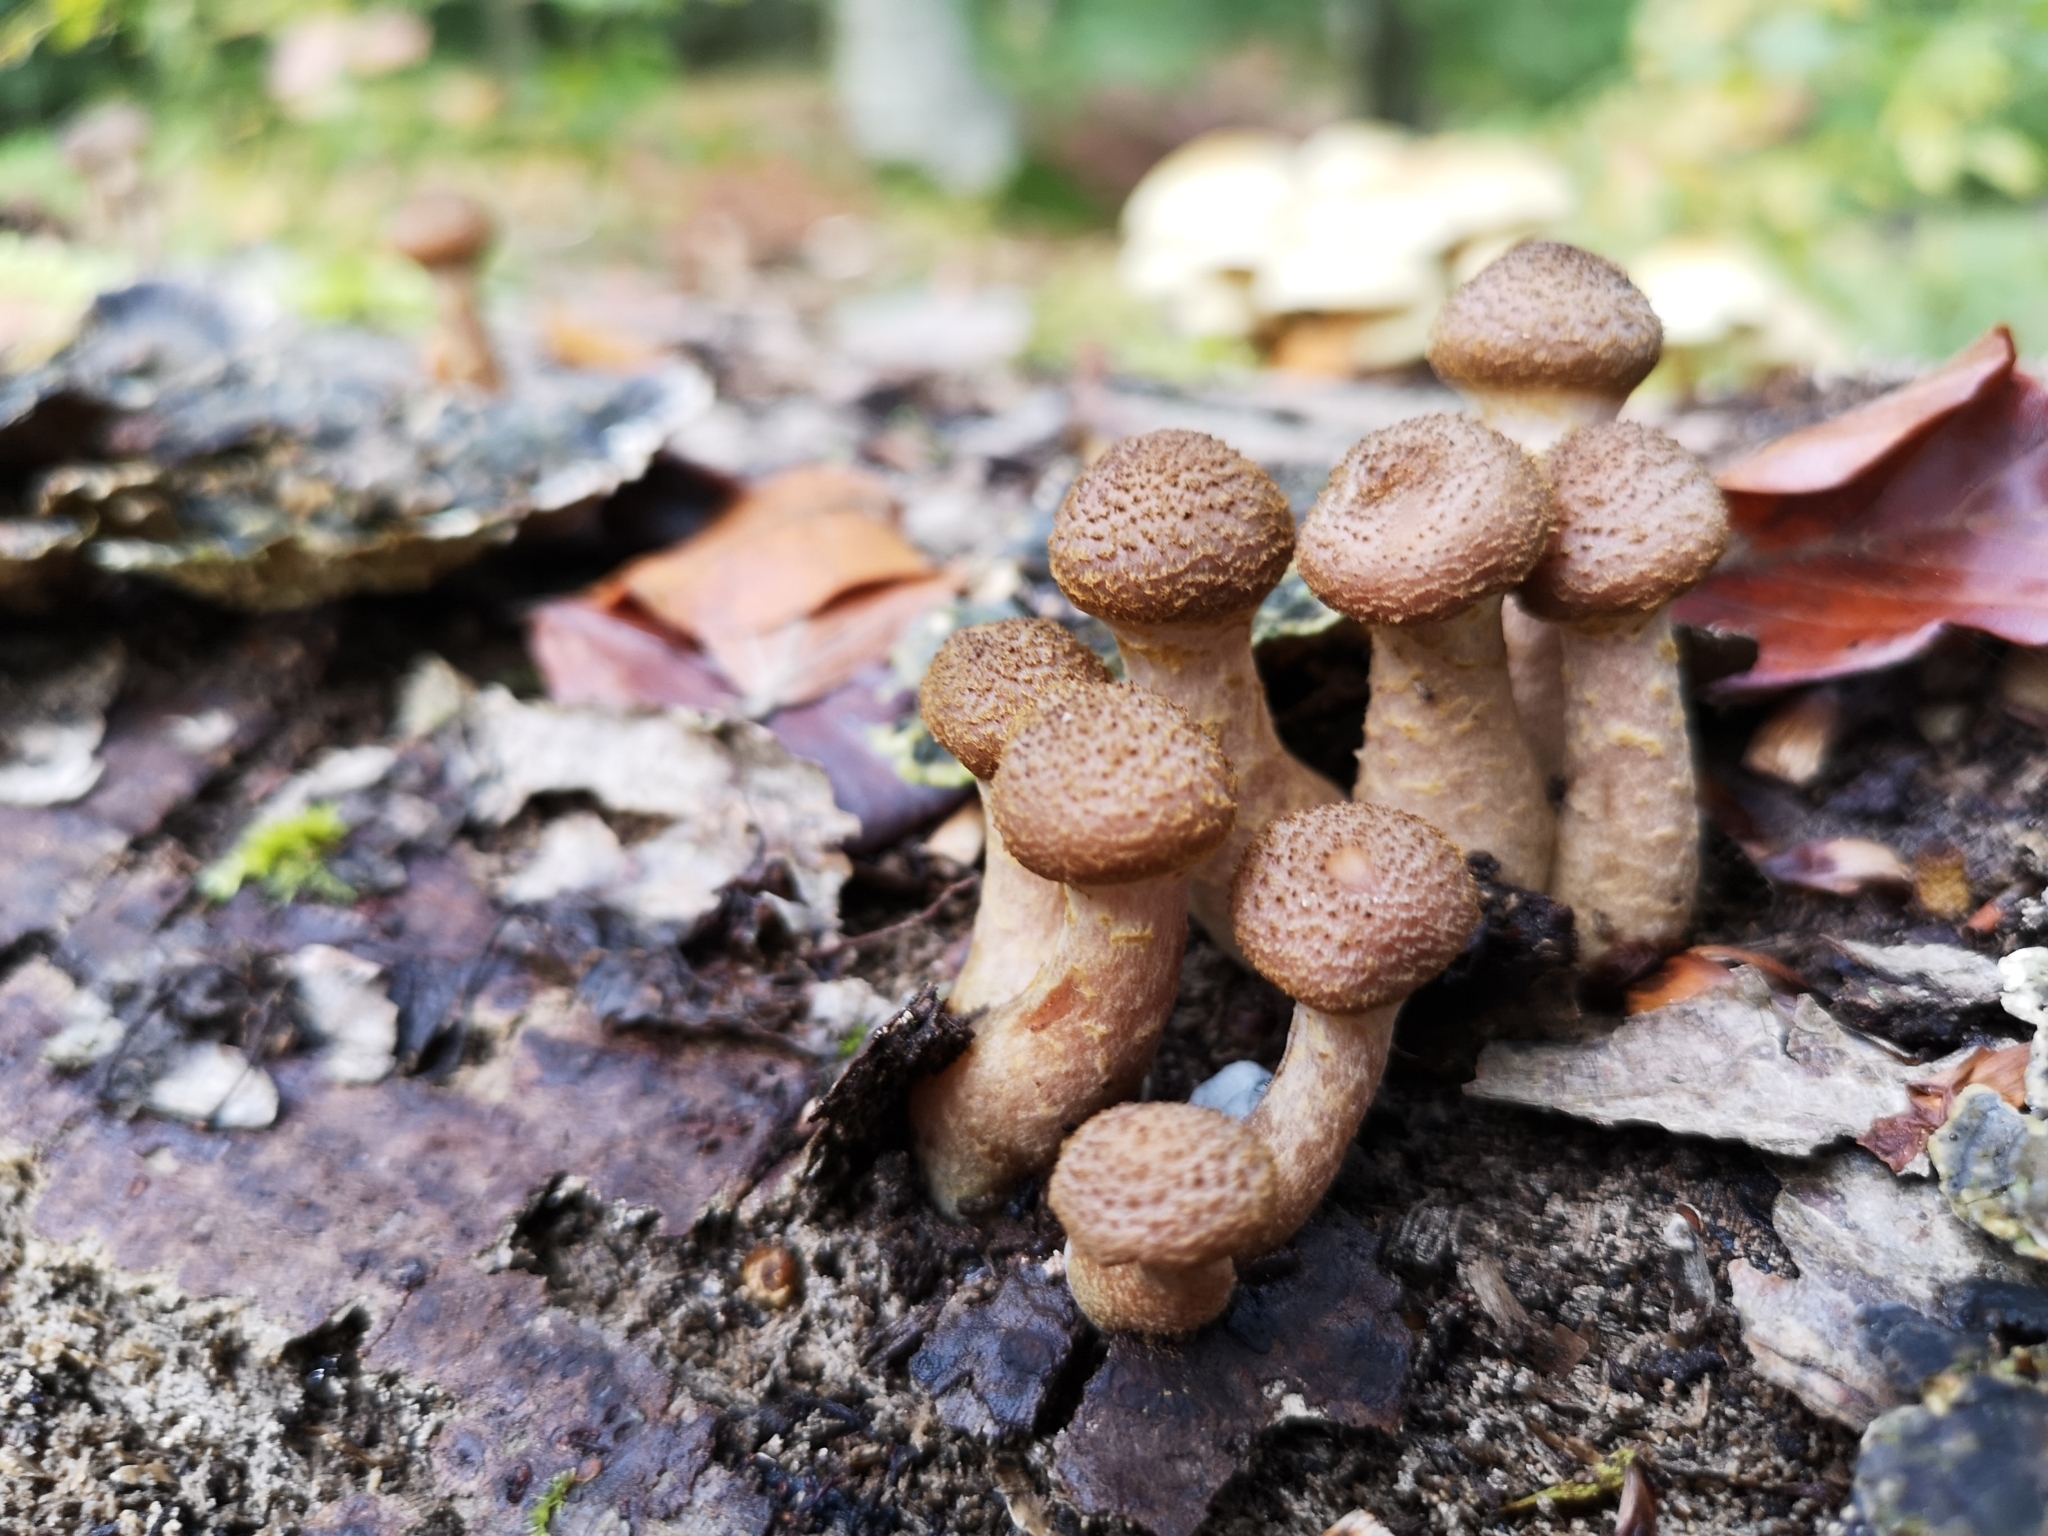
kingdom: Fungi
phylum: Basidiomycota
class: Agaricomycetes
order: Agaricales
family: Physalacriaceae
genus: Armillaria
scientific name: Armillaria ostoyae
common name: Dark honey fungus
